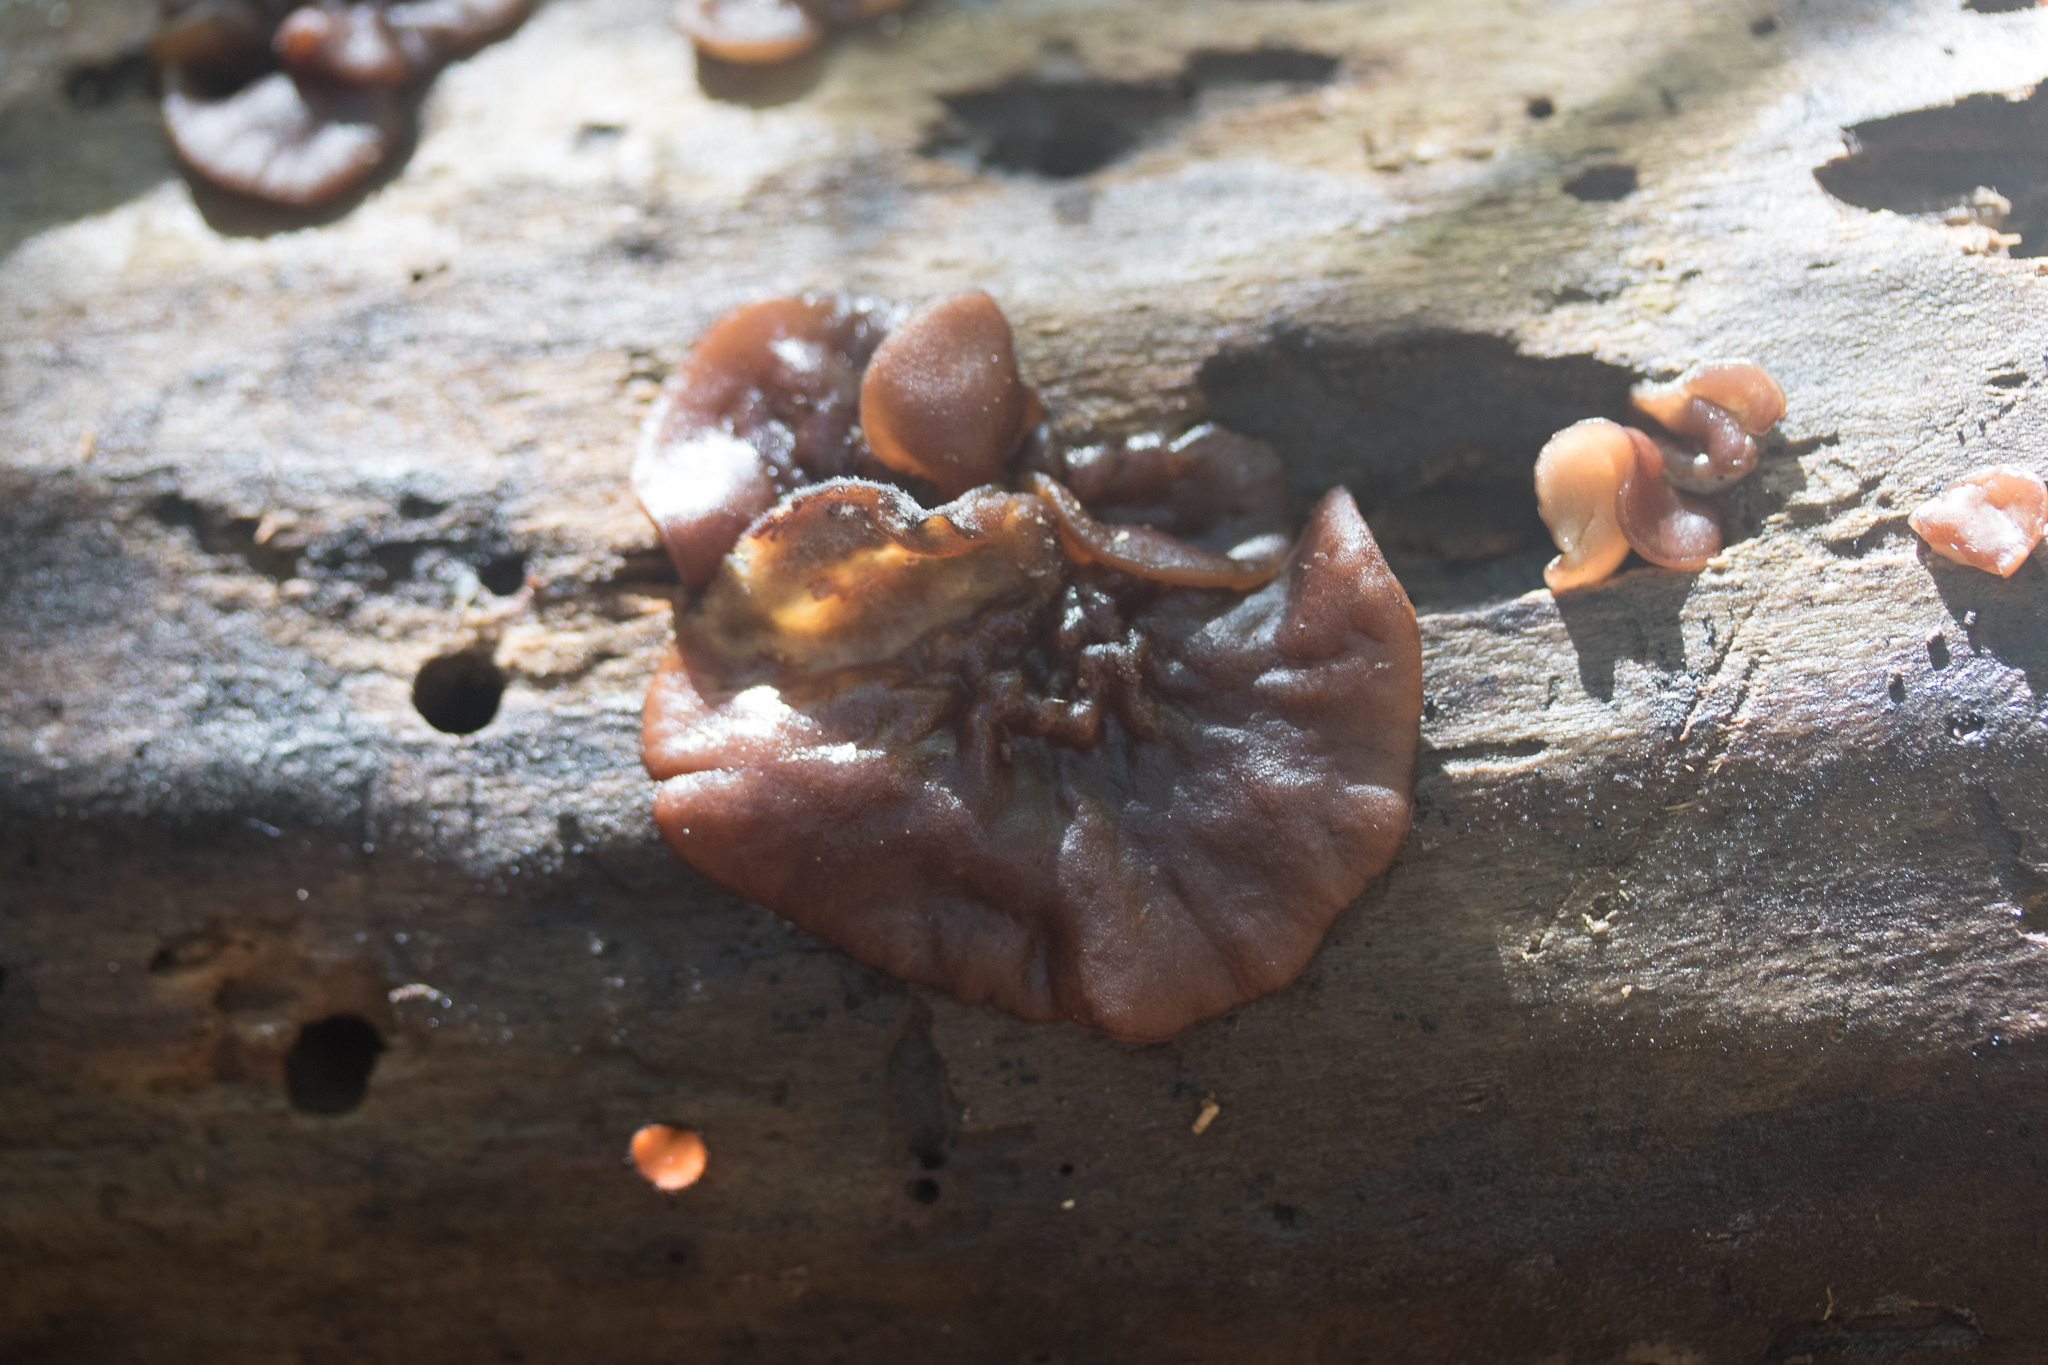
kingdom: Fungi
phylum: Ascomycota
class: Pezizomycetes
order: Pezizales
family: Pezizaceae
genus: Pachyella
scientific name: Pachyella clypeata
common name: Copper penny fungus
